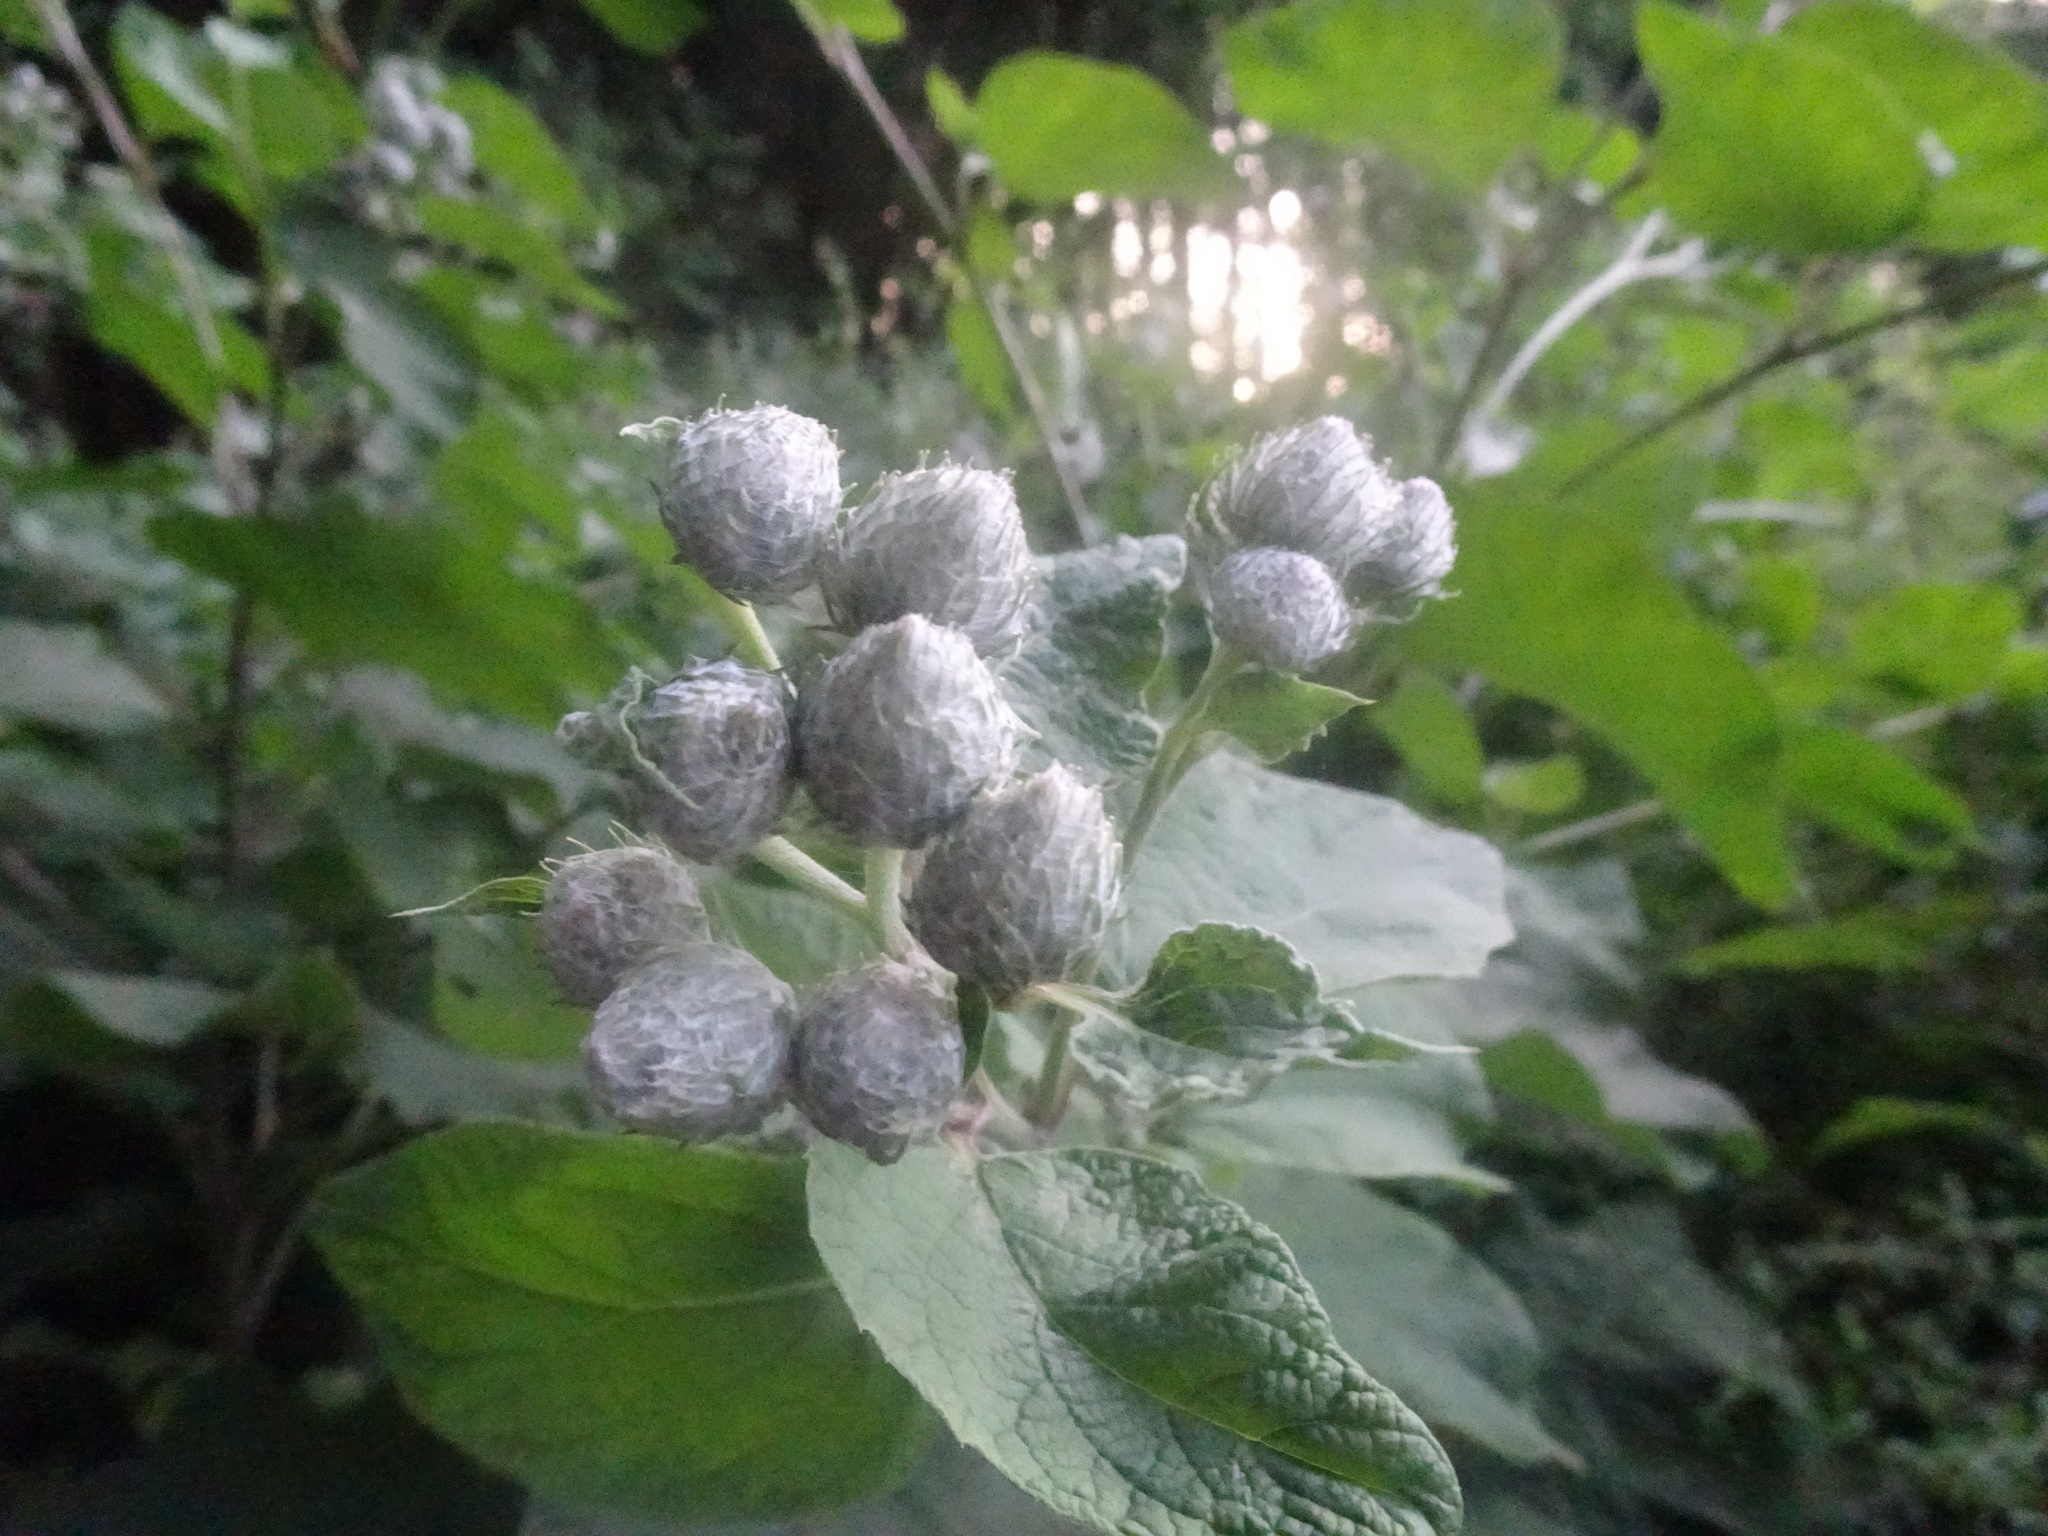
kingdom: Plantae
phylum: Tracheophyta
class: Magnoliopsida
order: Asterales
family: Asteraceae
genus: Arctium
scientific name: Arctium tomentosum
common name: Woolly burdock
